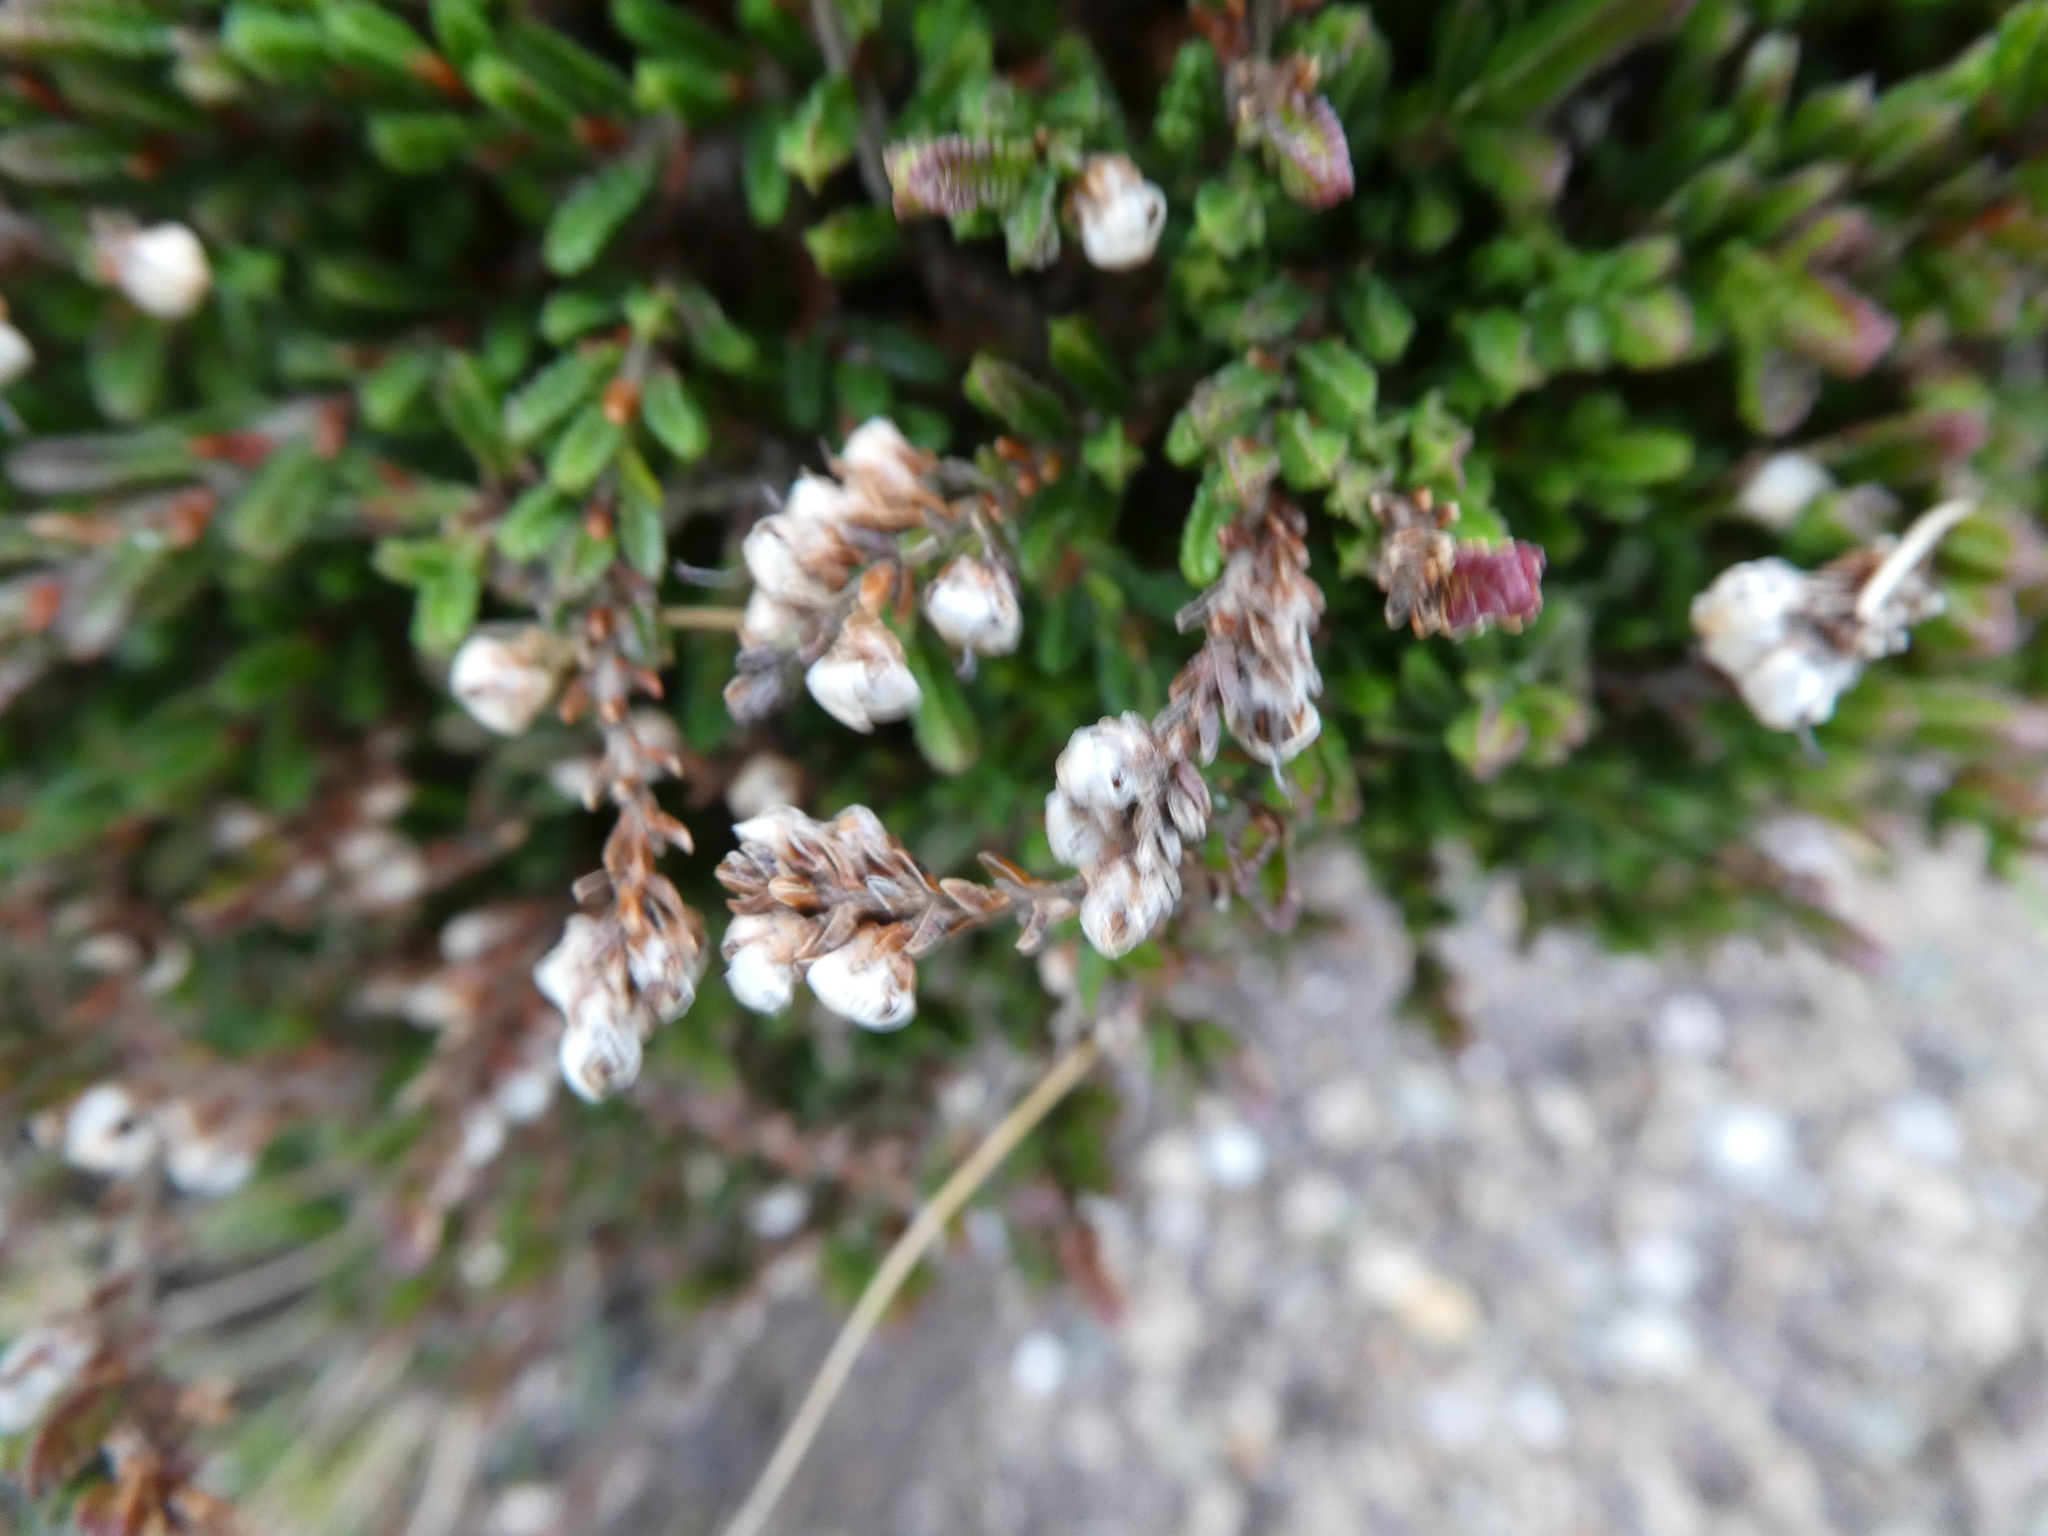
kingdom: Plantae
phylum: Tracheophyta
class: Magnoliopsida
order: Ericales
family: Ericaceae
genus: Calluna
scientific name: Calluna vulgaris
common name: Heather
